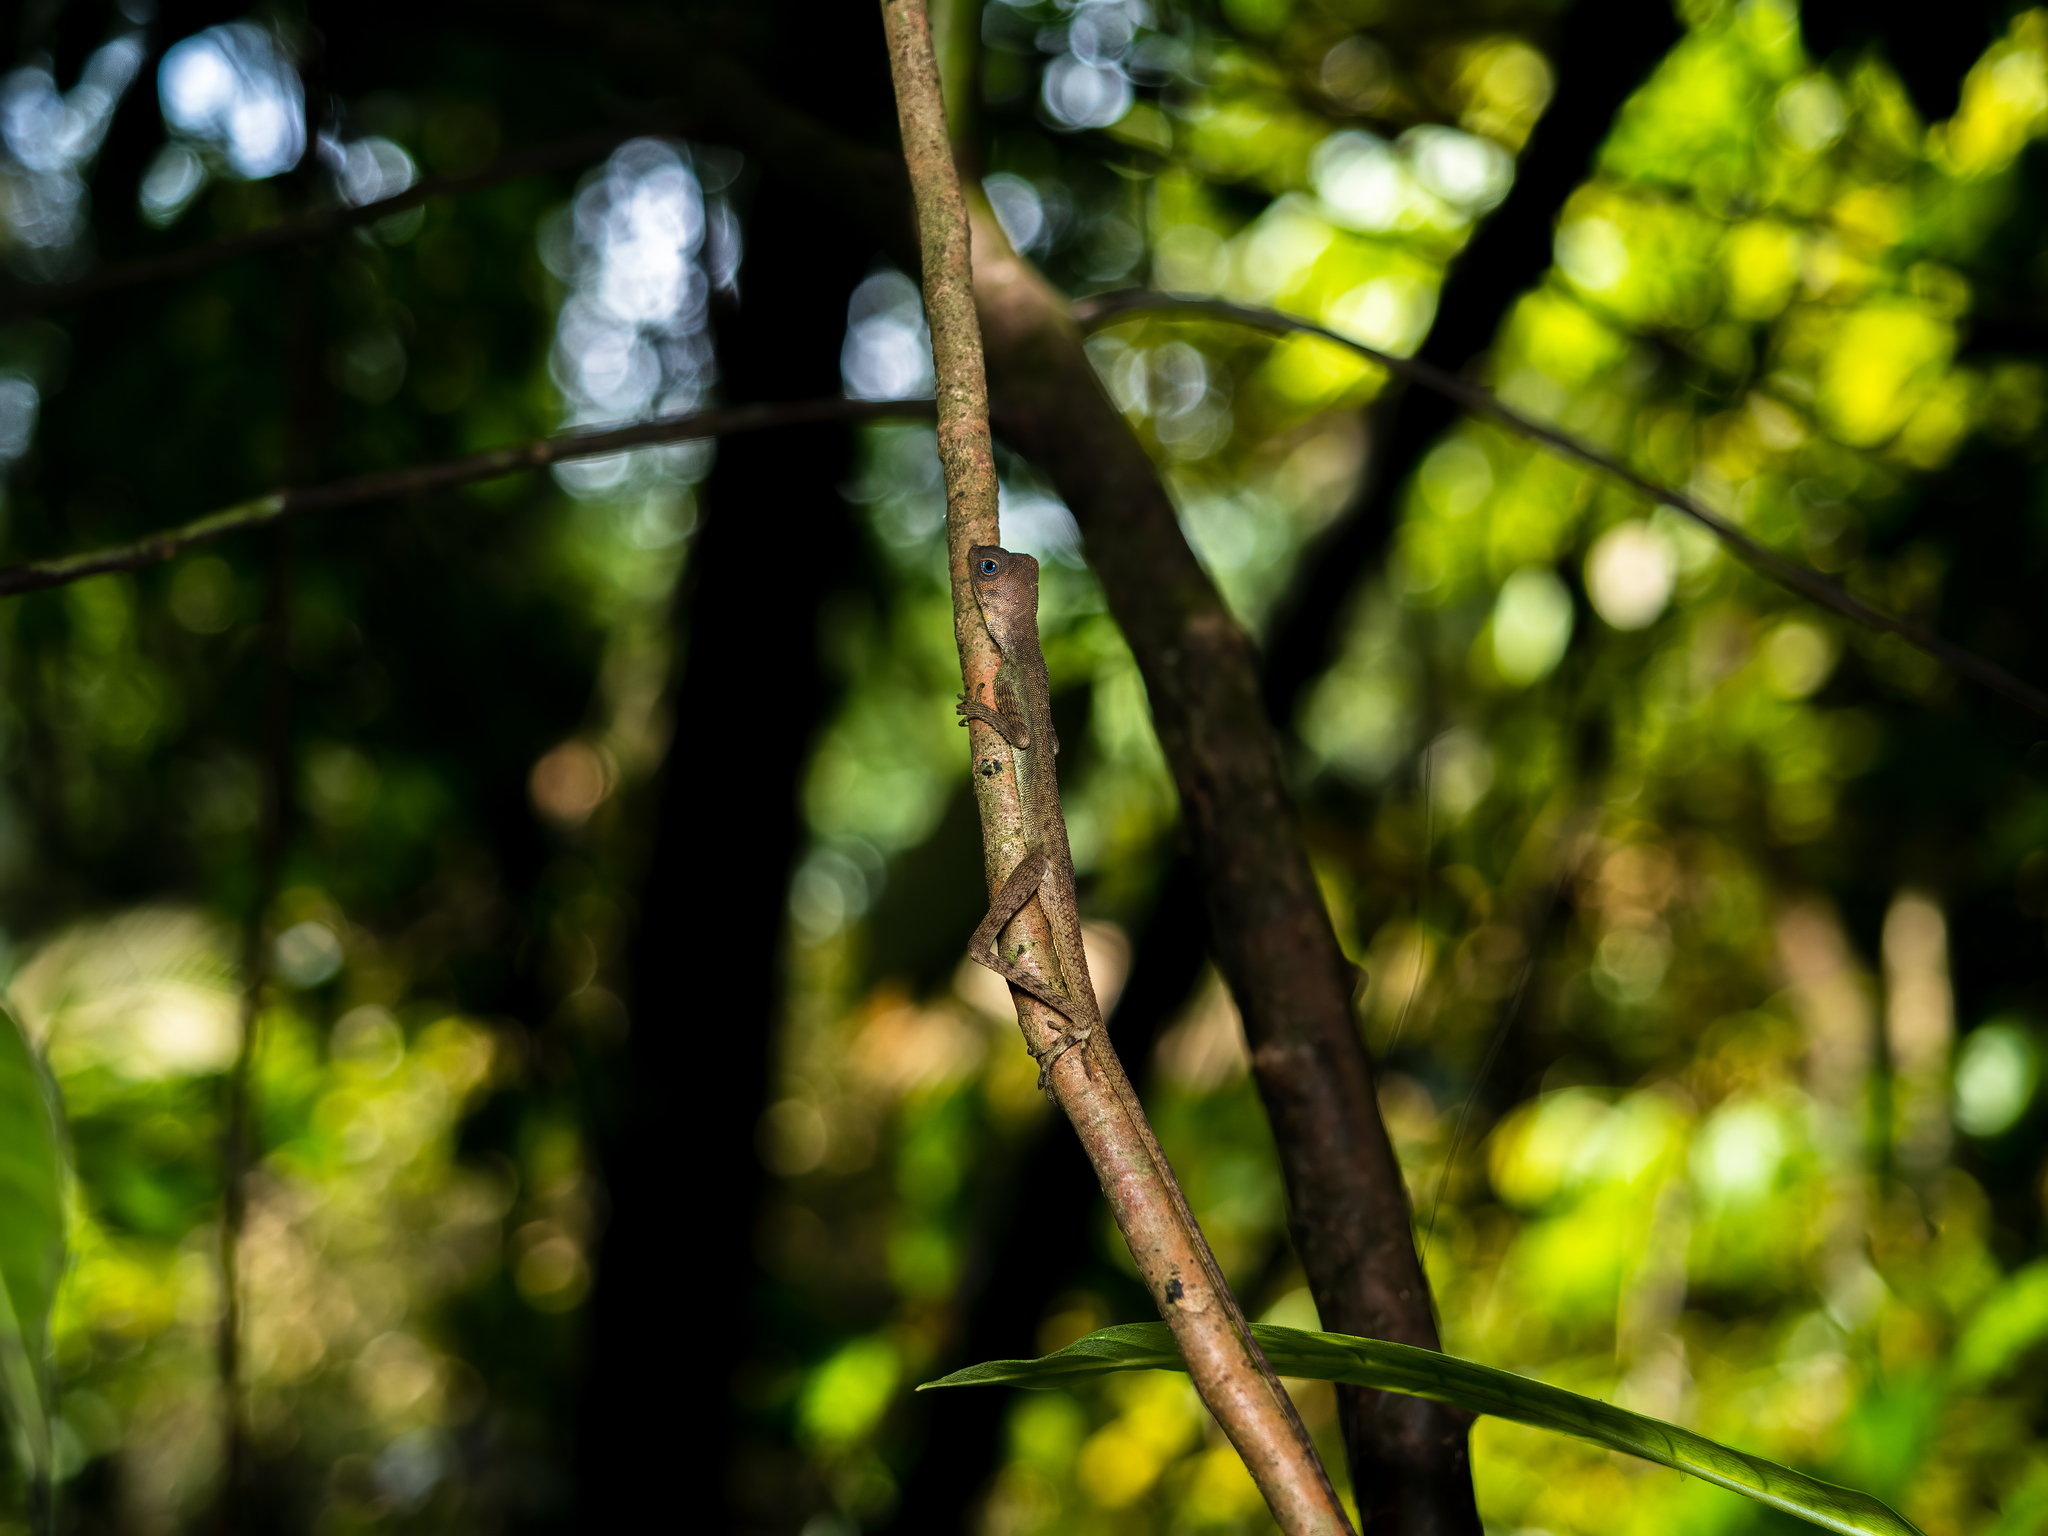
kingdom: Animalia
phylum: Chordata
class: Squamata
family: Agamidae
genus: Aphaniotis
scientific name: Aphaniotis fusca
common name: Dusky earless agama
